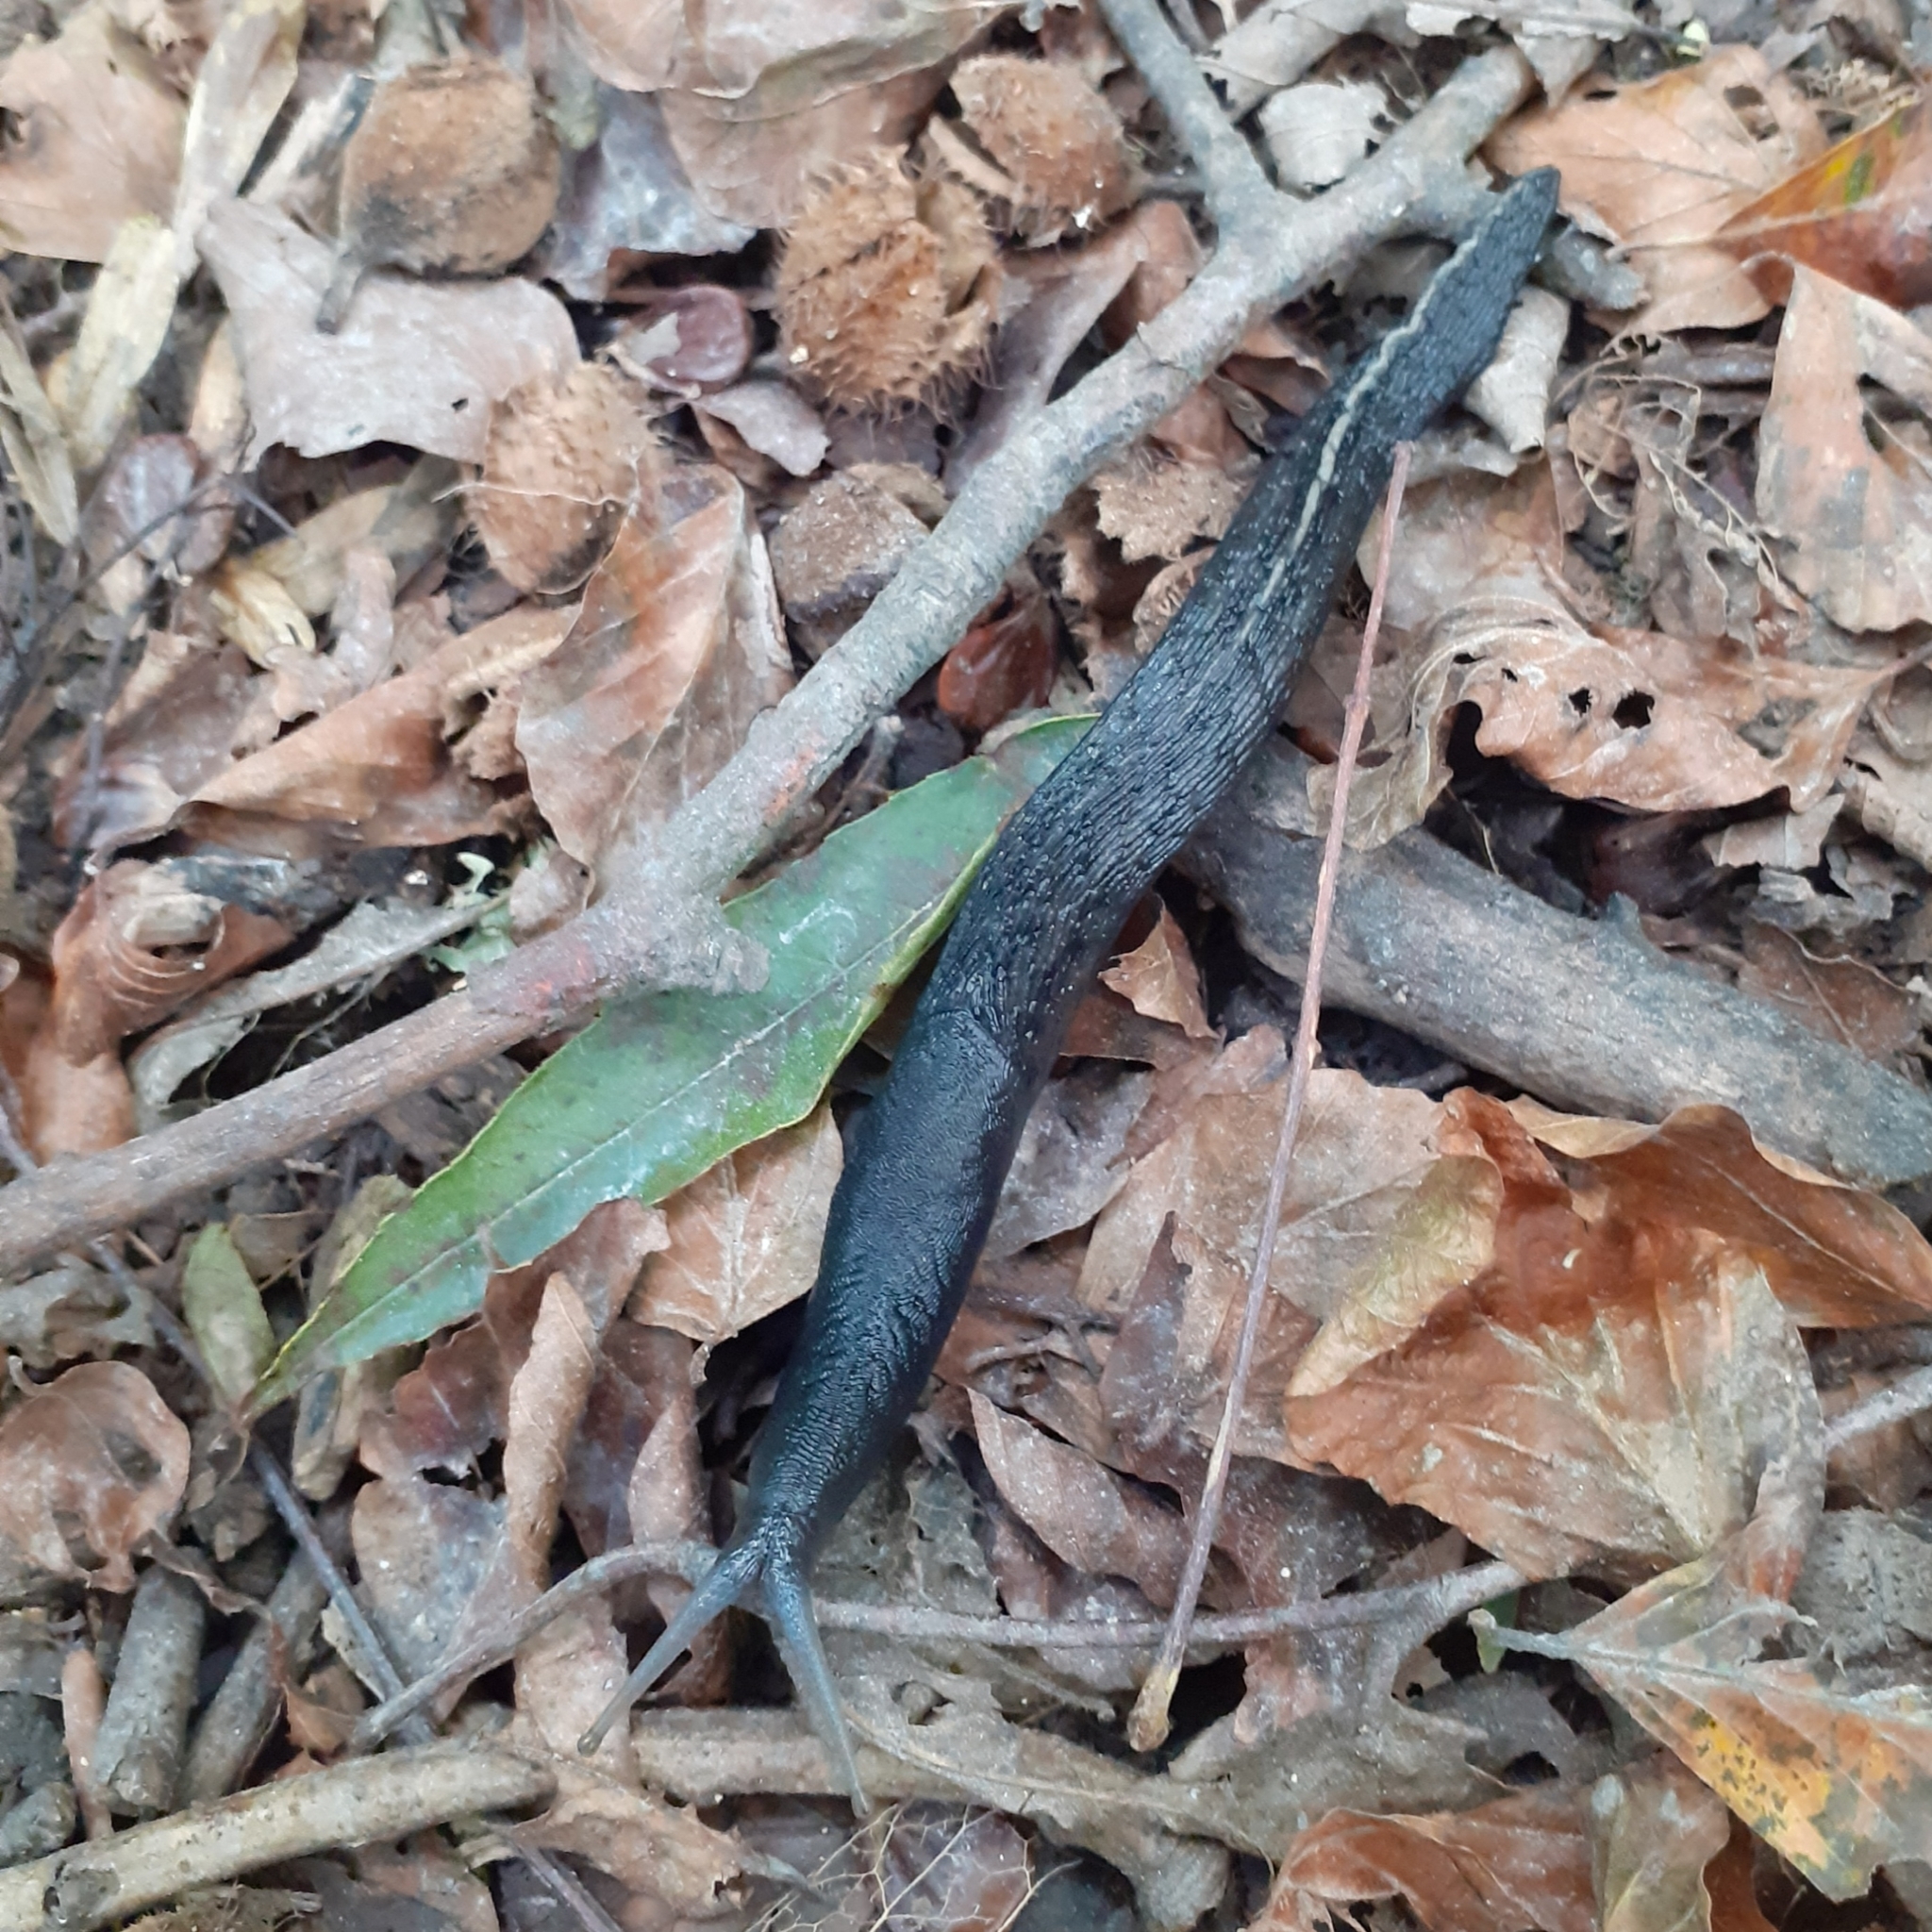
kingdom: Animalia
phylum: Mollusca
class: Gastropoda
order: Stylommatophora
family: Limacidae
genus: Limax
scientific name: Limax cinereoniger
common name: Ash-black slug
